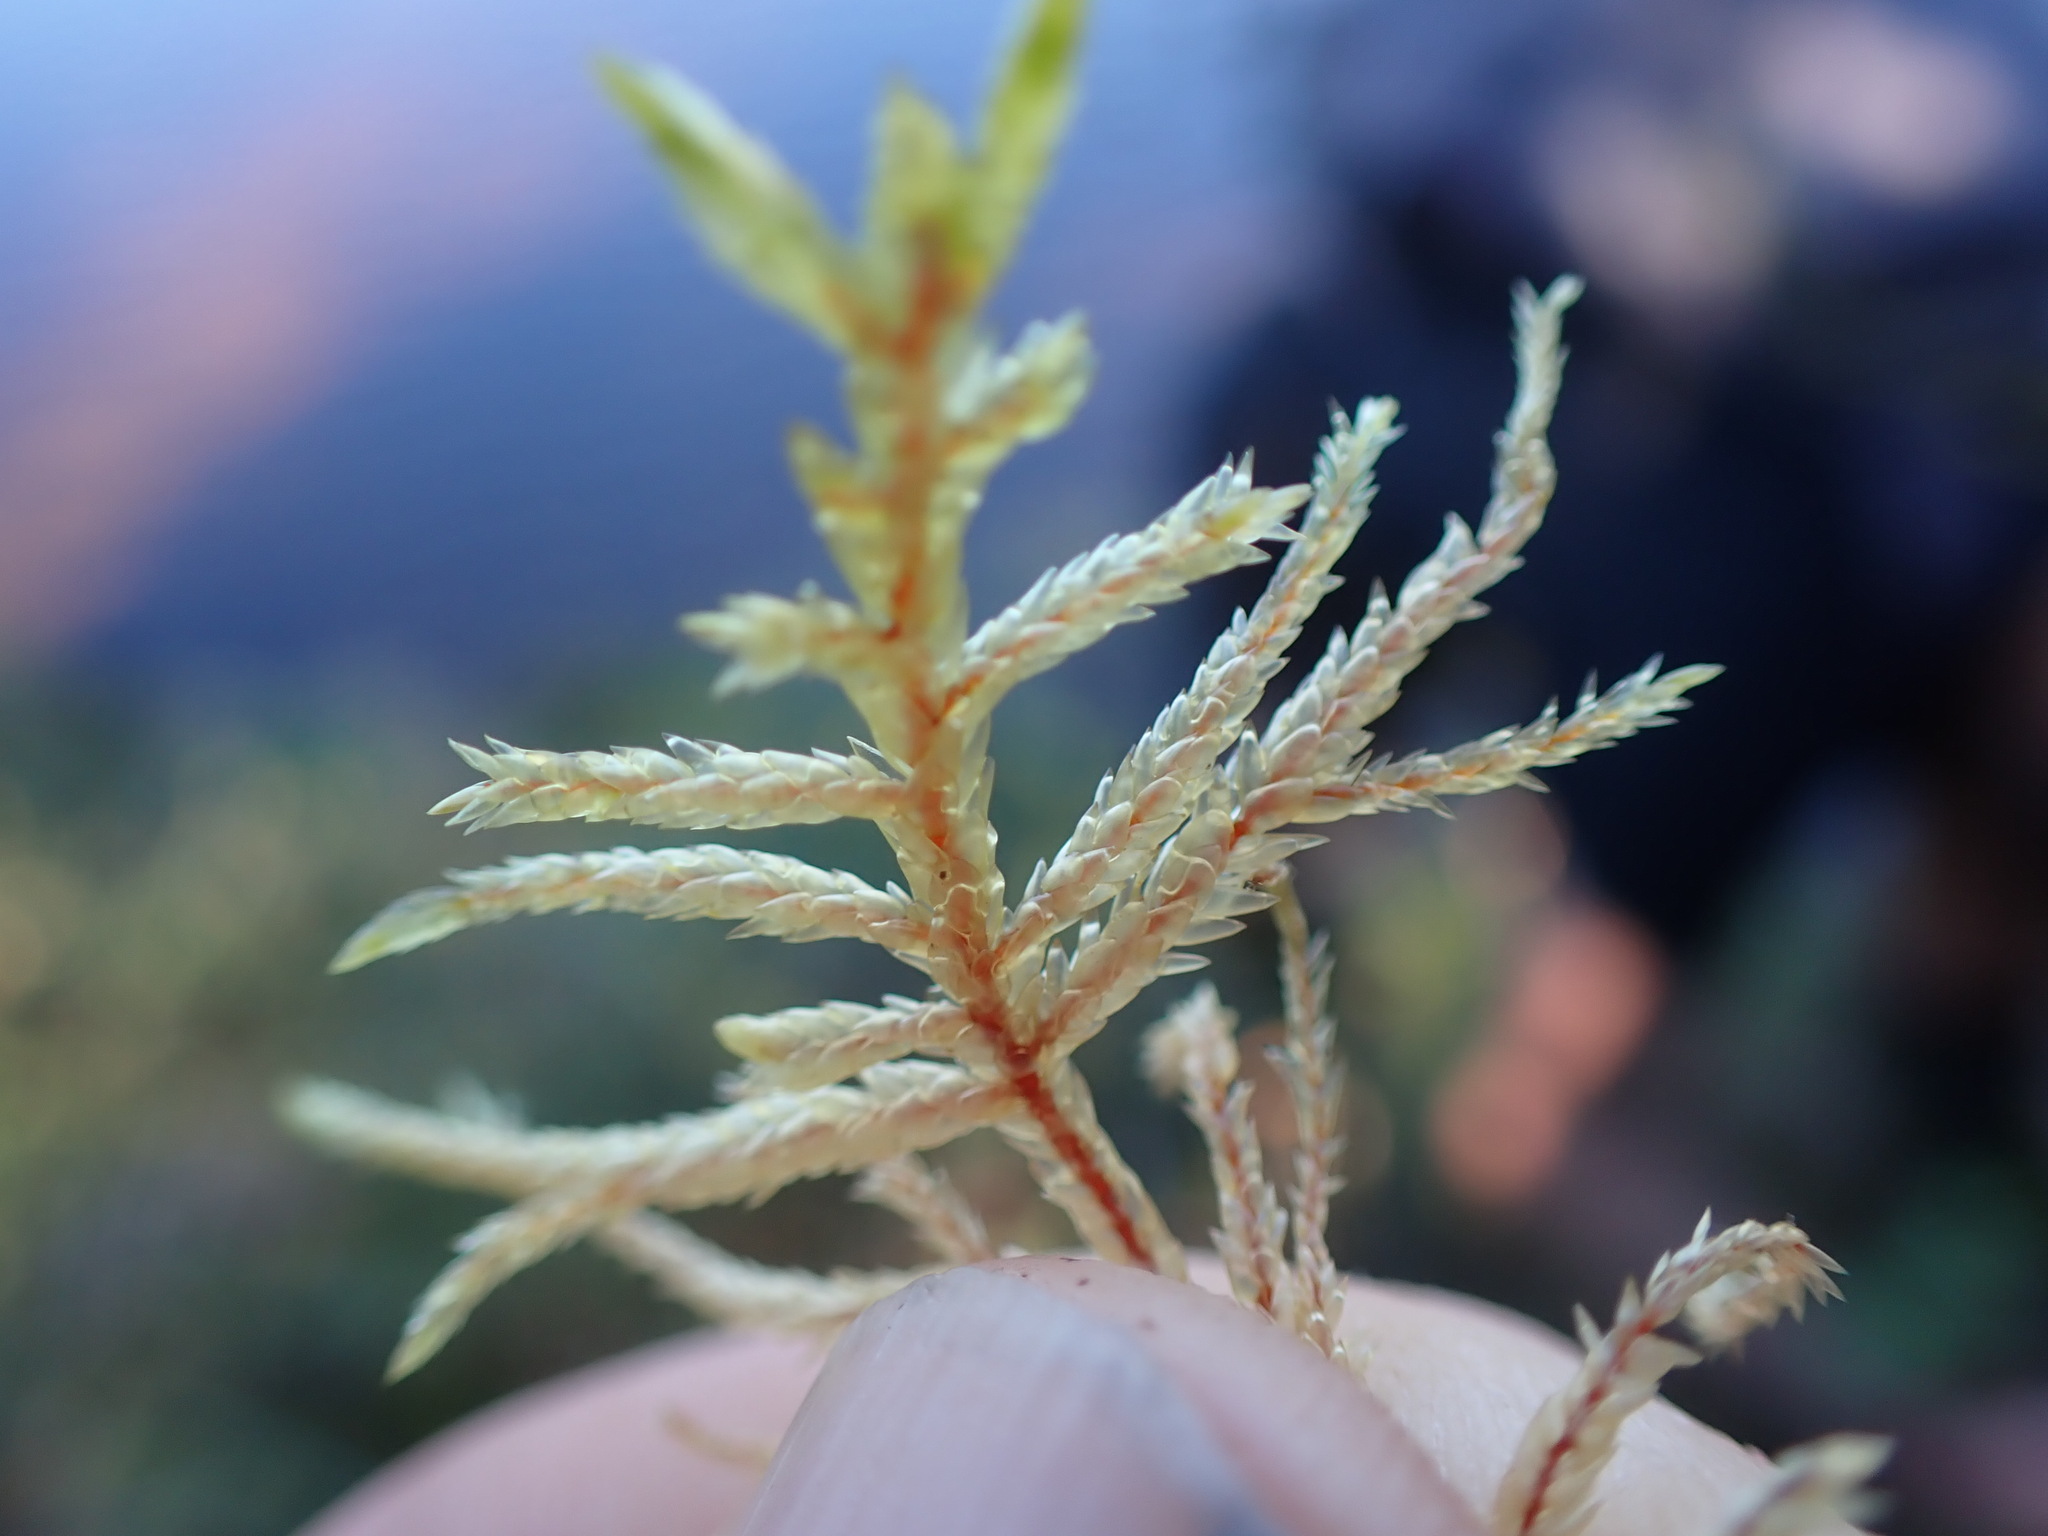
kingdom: Plantae
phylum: Bryophyta
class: Bryopsida
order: Hypnales
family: Hylocomiaceae
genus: Pleurozium
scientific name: Pleurozium schreberi
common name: Red-stemmed feather moss
